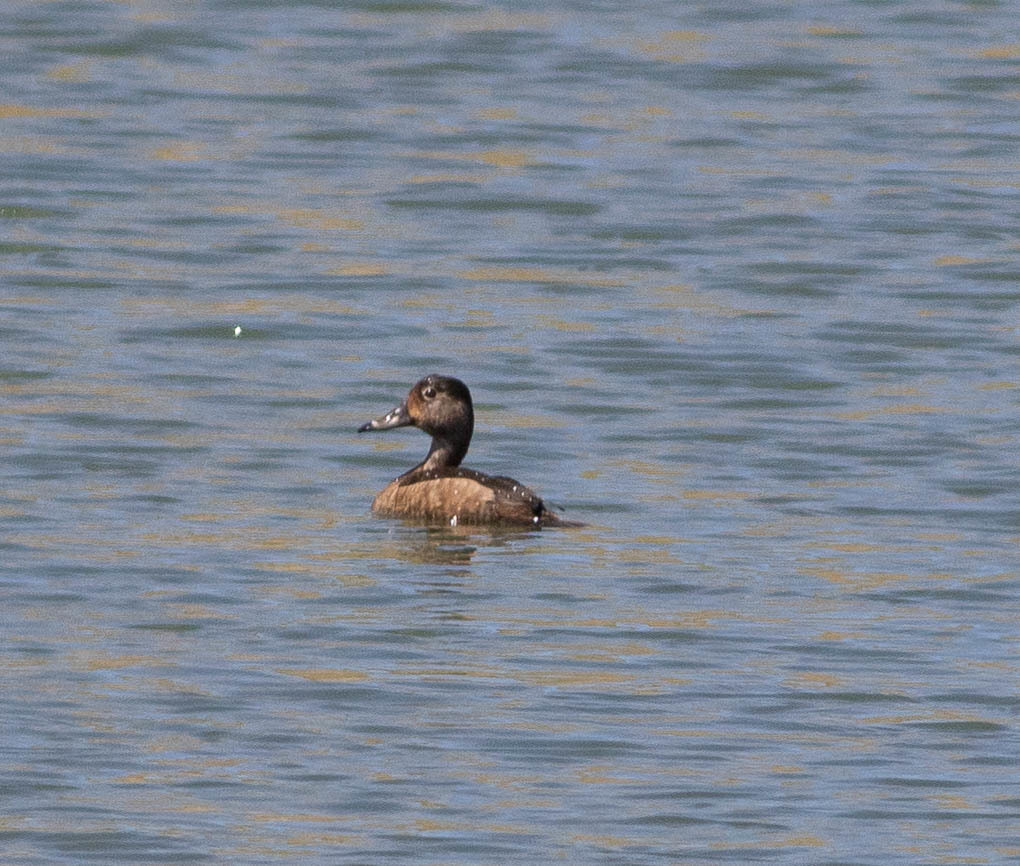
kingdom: Animalia
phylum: Chordata
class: Aves
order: Anseriformes
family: Anatidae
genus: Aythya
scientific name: Aythya collaris
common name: Ring-necked duck
